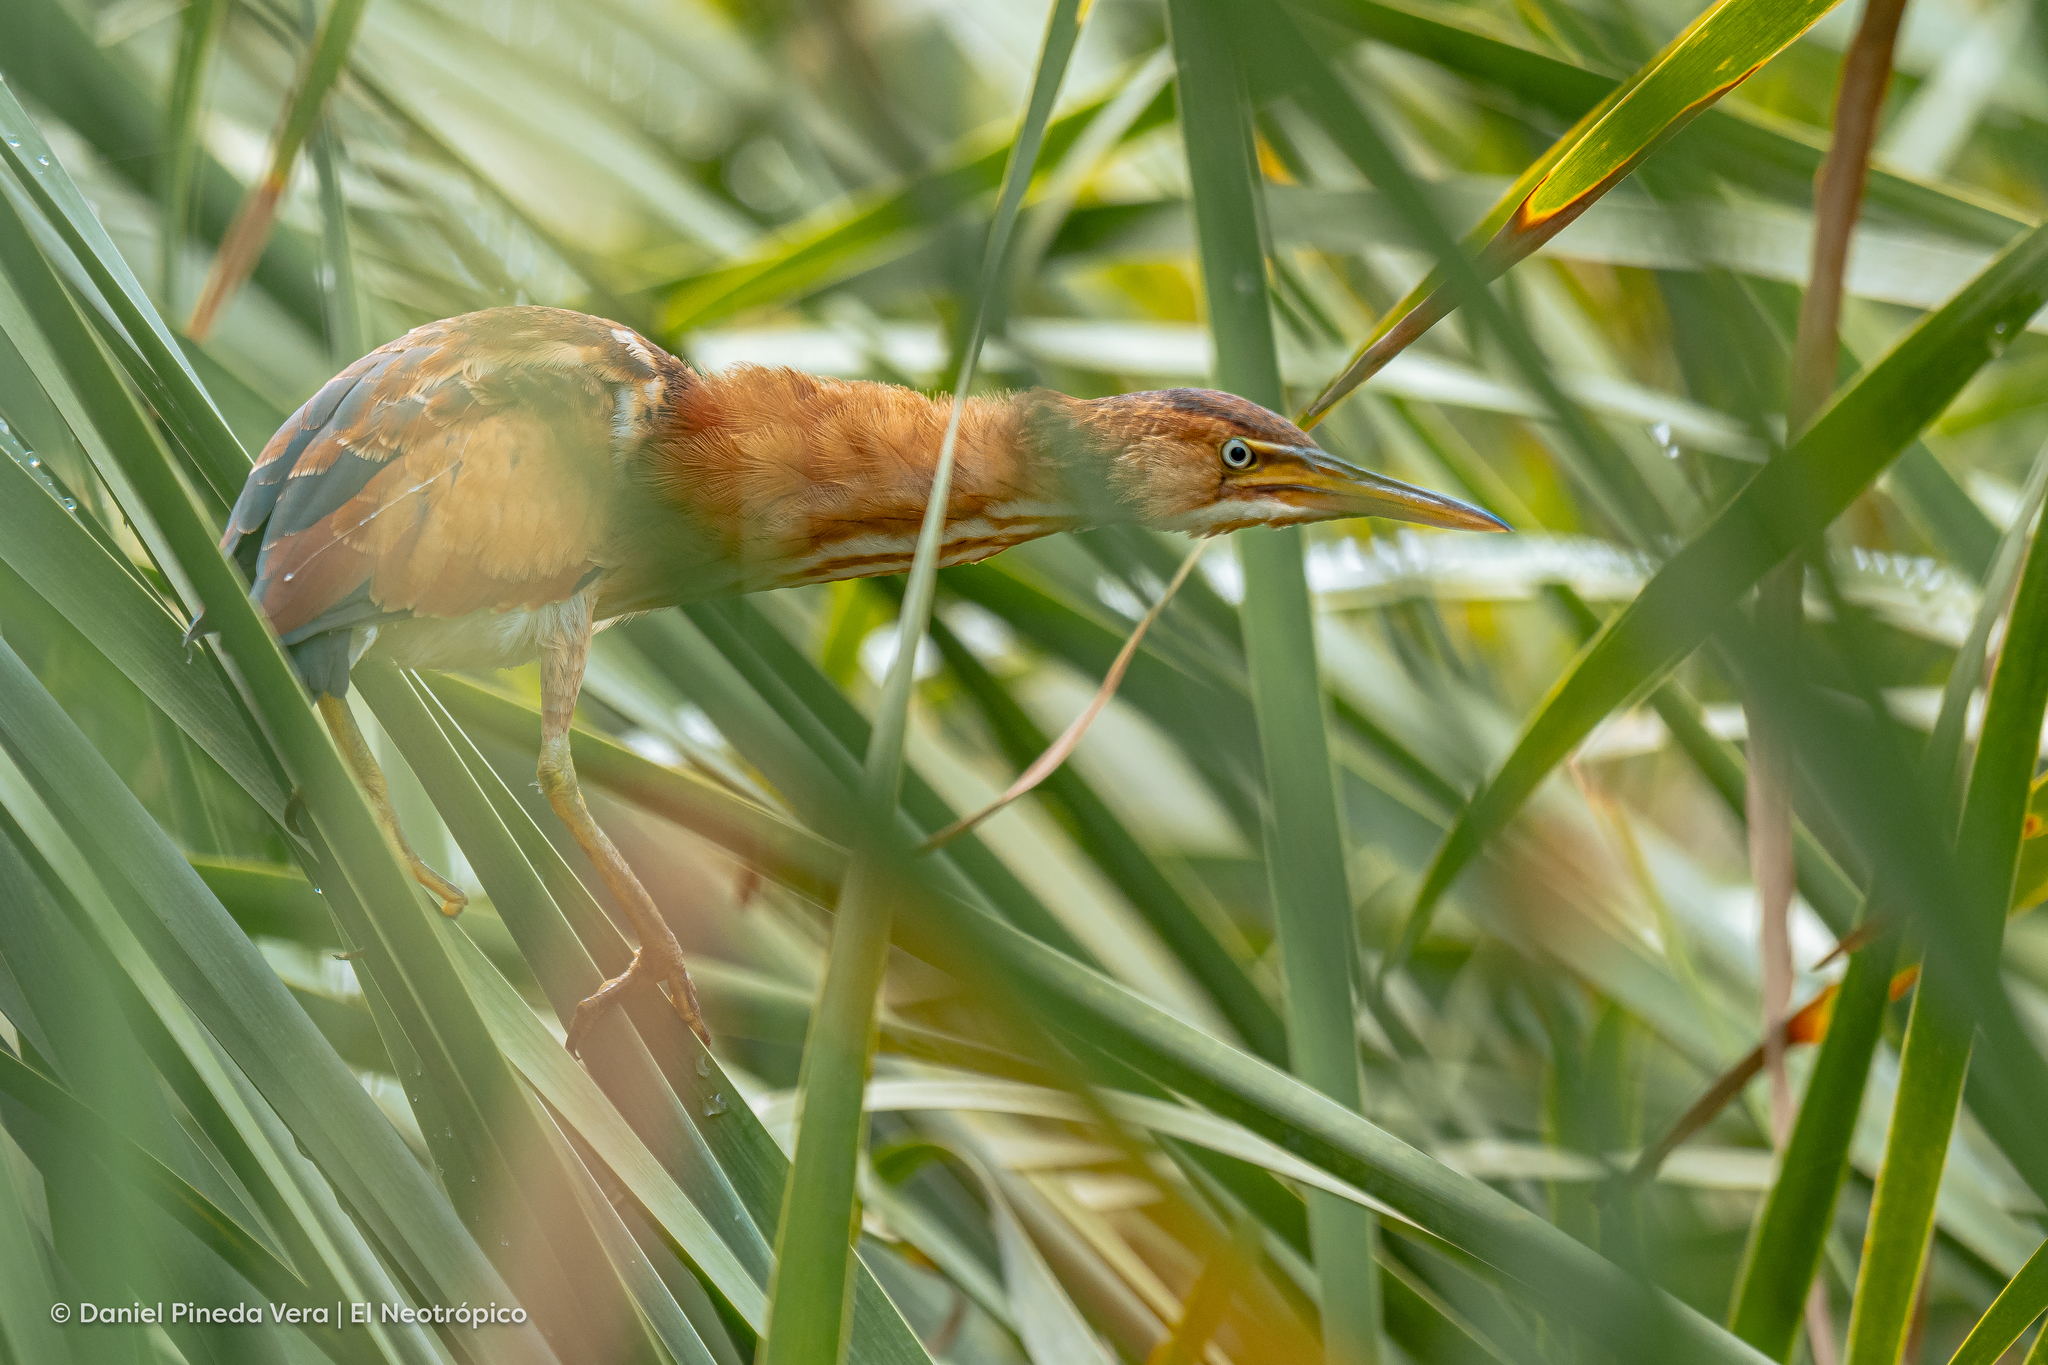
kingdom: Animalia
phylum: Chordata
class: Aves
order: Pelecaniformes
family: Ardeidae
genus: Ixobrychus
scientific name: Ixobrychus exilis
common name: Least bittern
